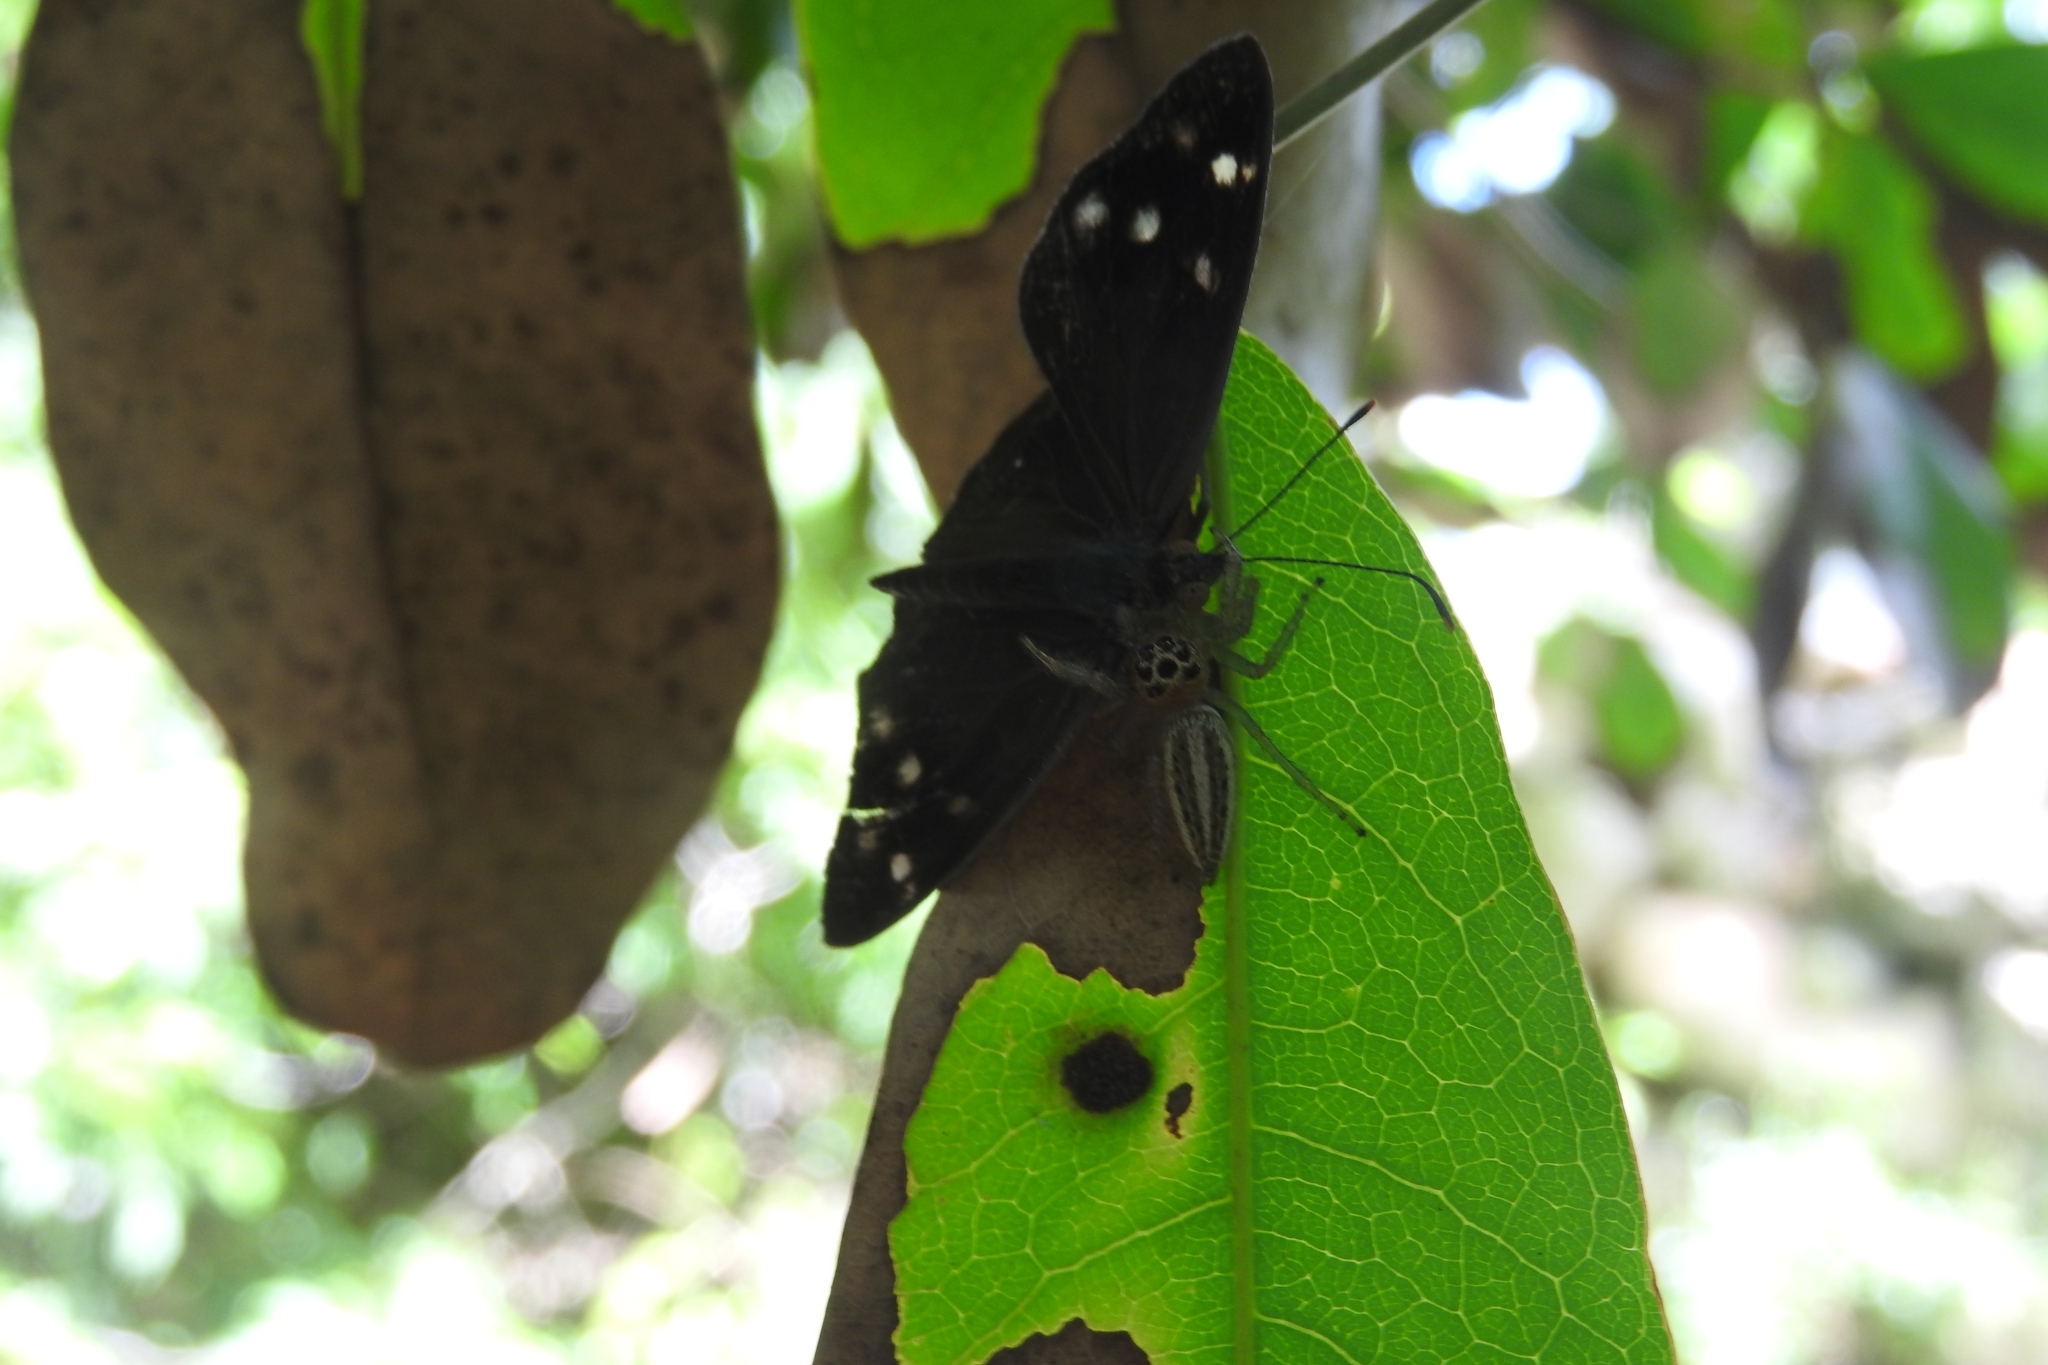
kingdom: Animalia
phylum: Arthropoda
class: Insecta
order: Lepidoptera
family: Nymphalidae
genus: Eunica
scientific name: Eunica monima
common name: Dingy purplewing
